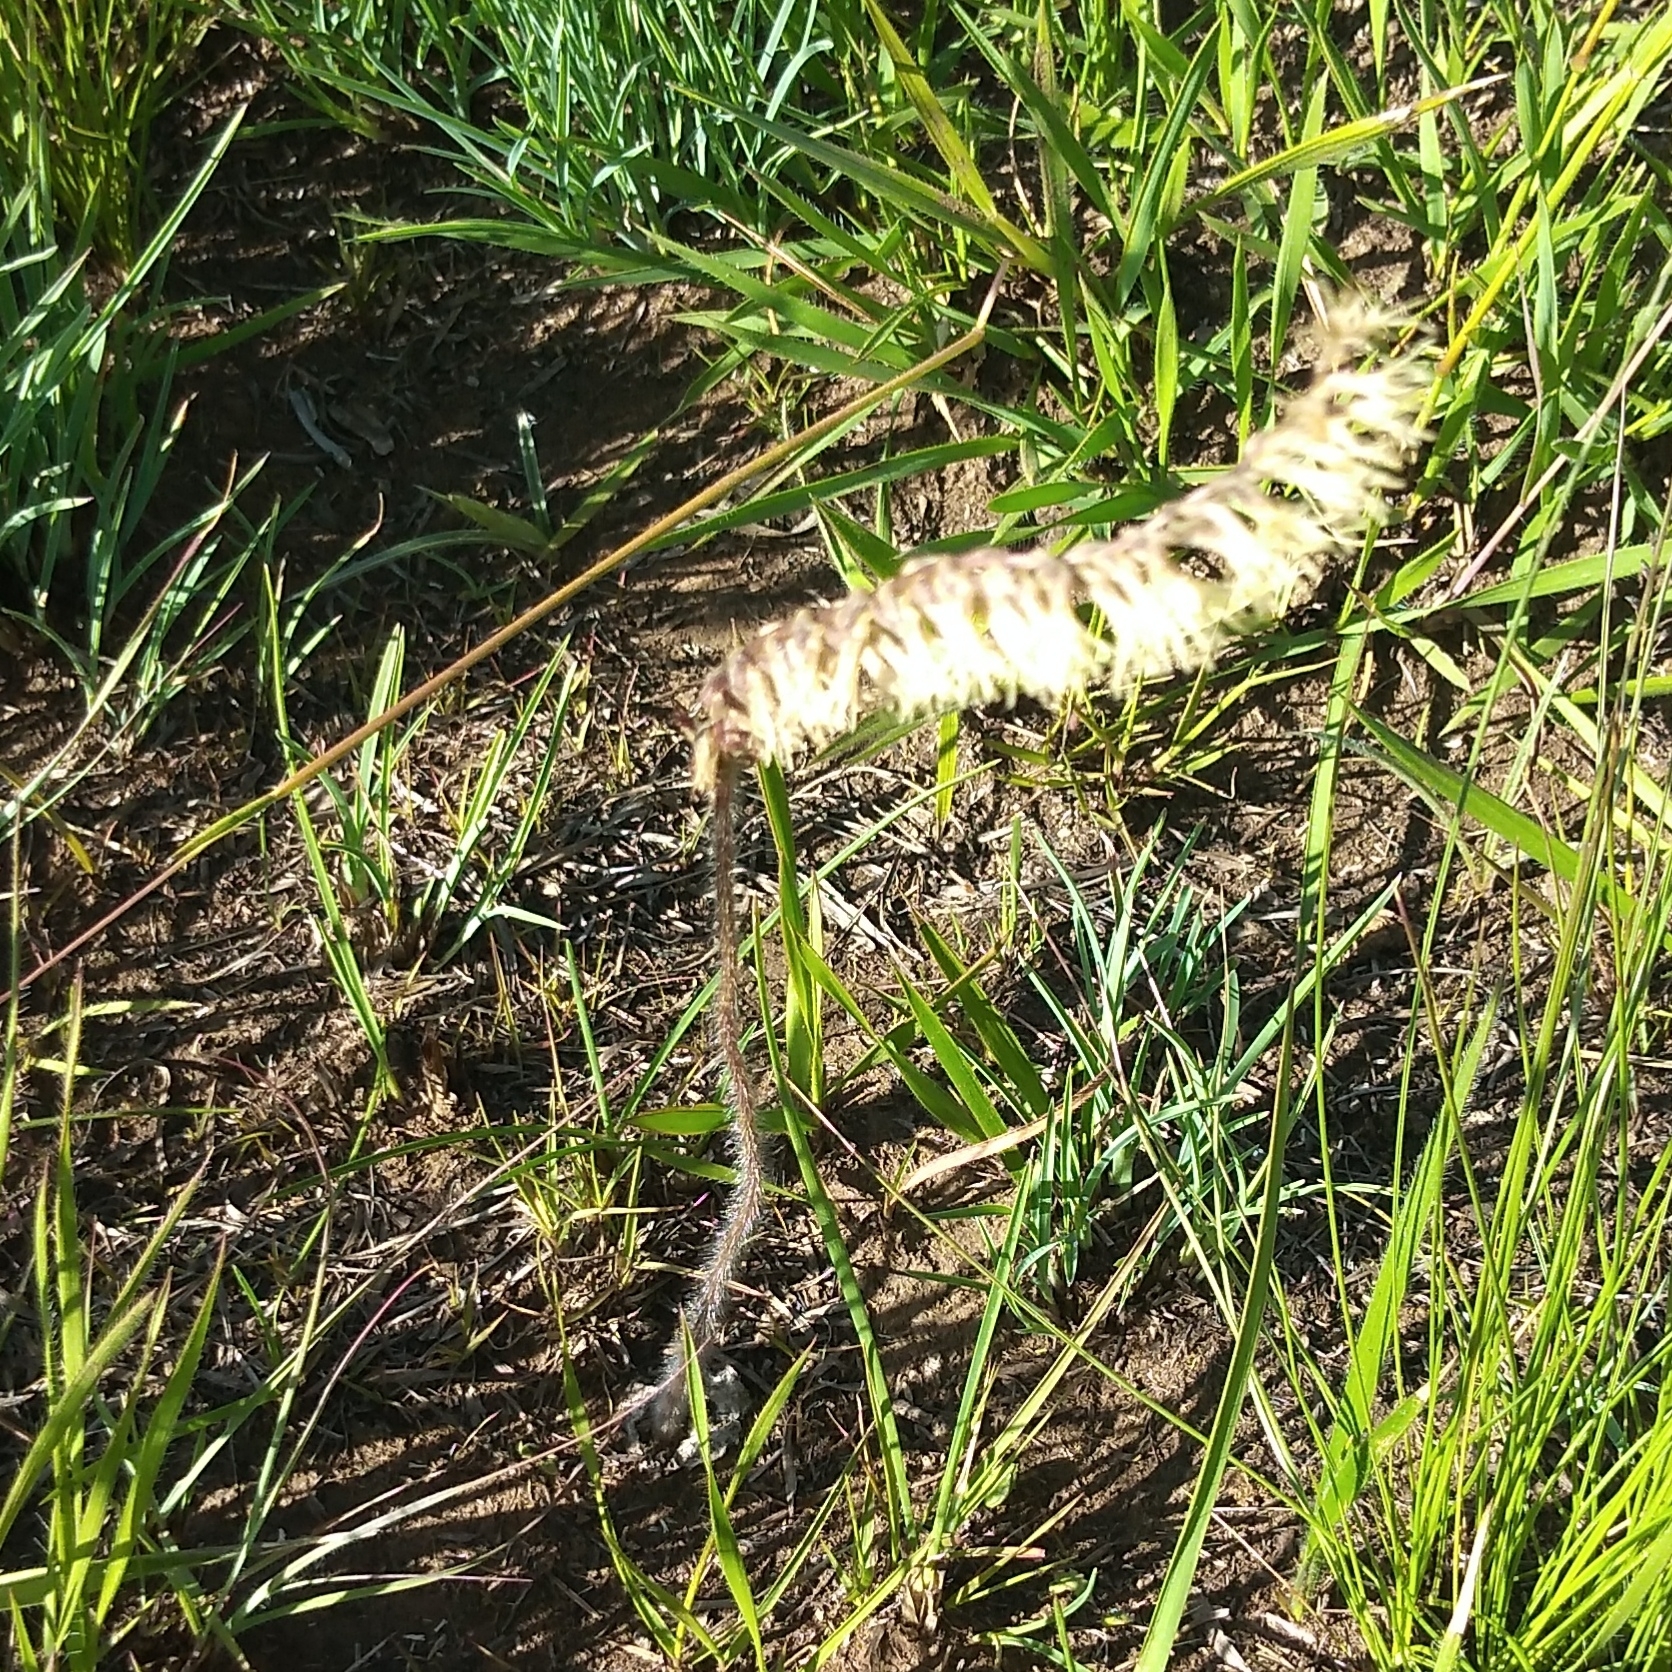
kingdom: Plantae
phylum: Tracheophyta
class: Liliopsida
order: Asparagales
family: Orchidaceae
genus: Holothrix
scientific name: Holothrix scopularia
